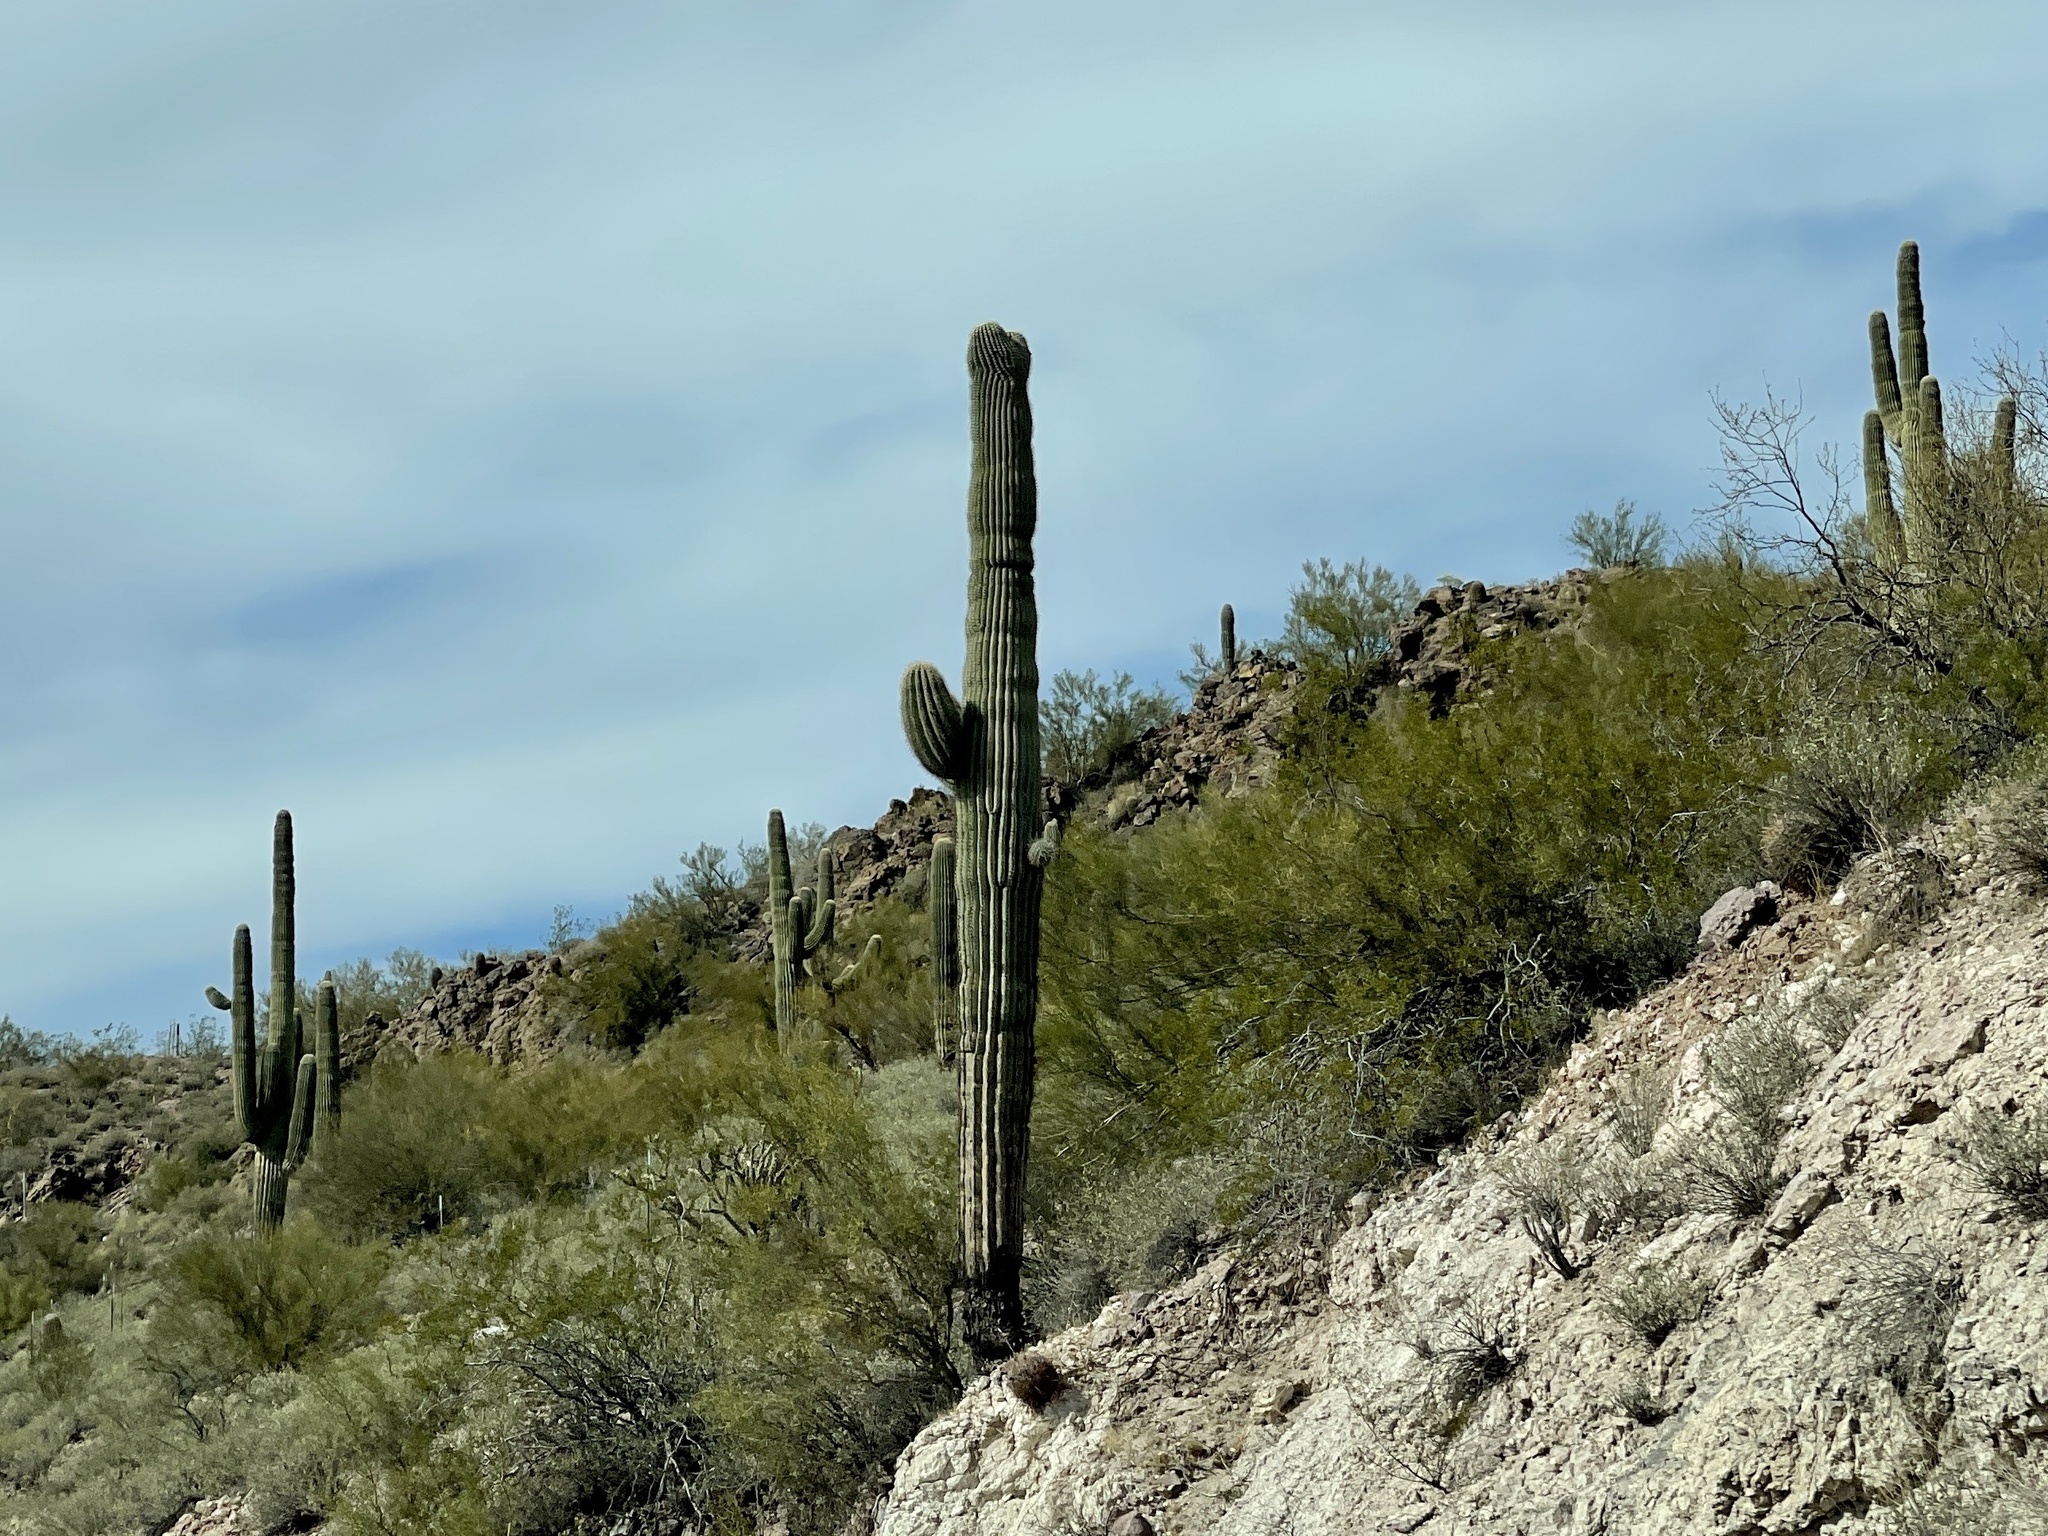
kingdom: Plantae
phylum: Tracheophyta
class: Magnoliopsida
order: Caryophyllales
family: Cactaceae
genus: Carnegiea
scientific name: Carnegiea gigantea
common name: Saguaro
